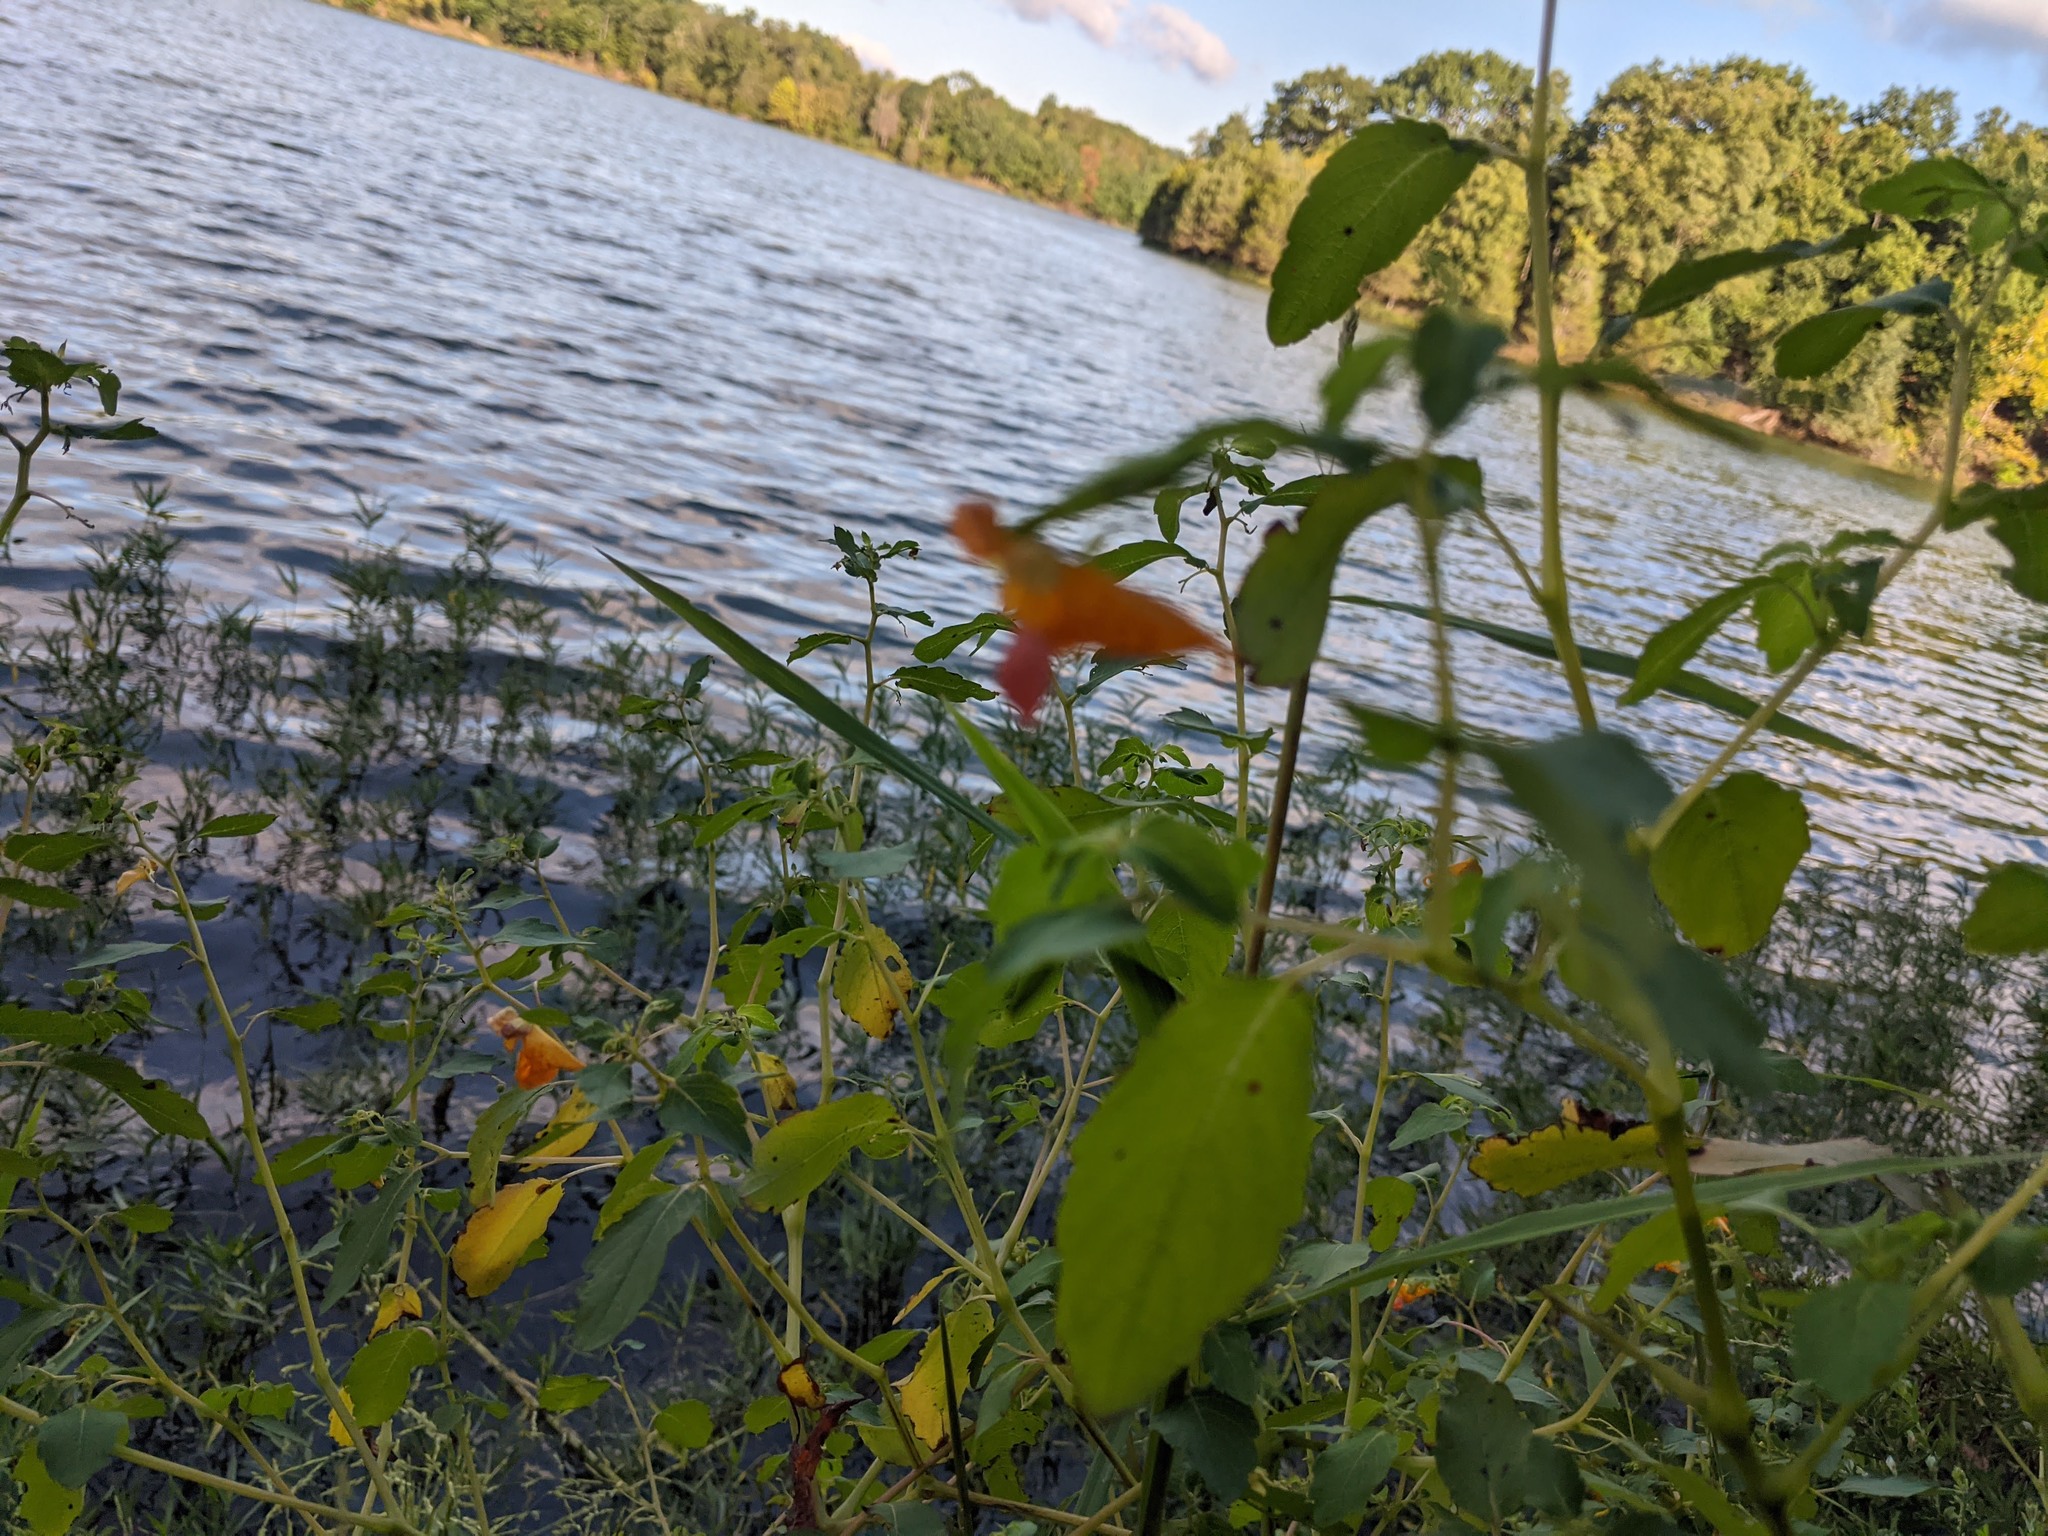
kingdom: Plantae
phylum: Tracheophyta
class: Magnoliopsida
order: Ericales
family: Balsaminaceae
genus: Impatiens
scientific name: Impatiens capensis
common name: Orange balsam
